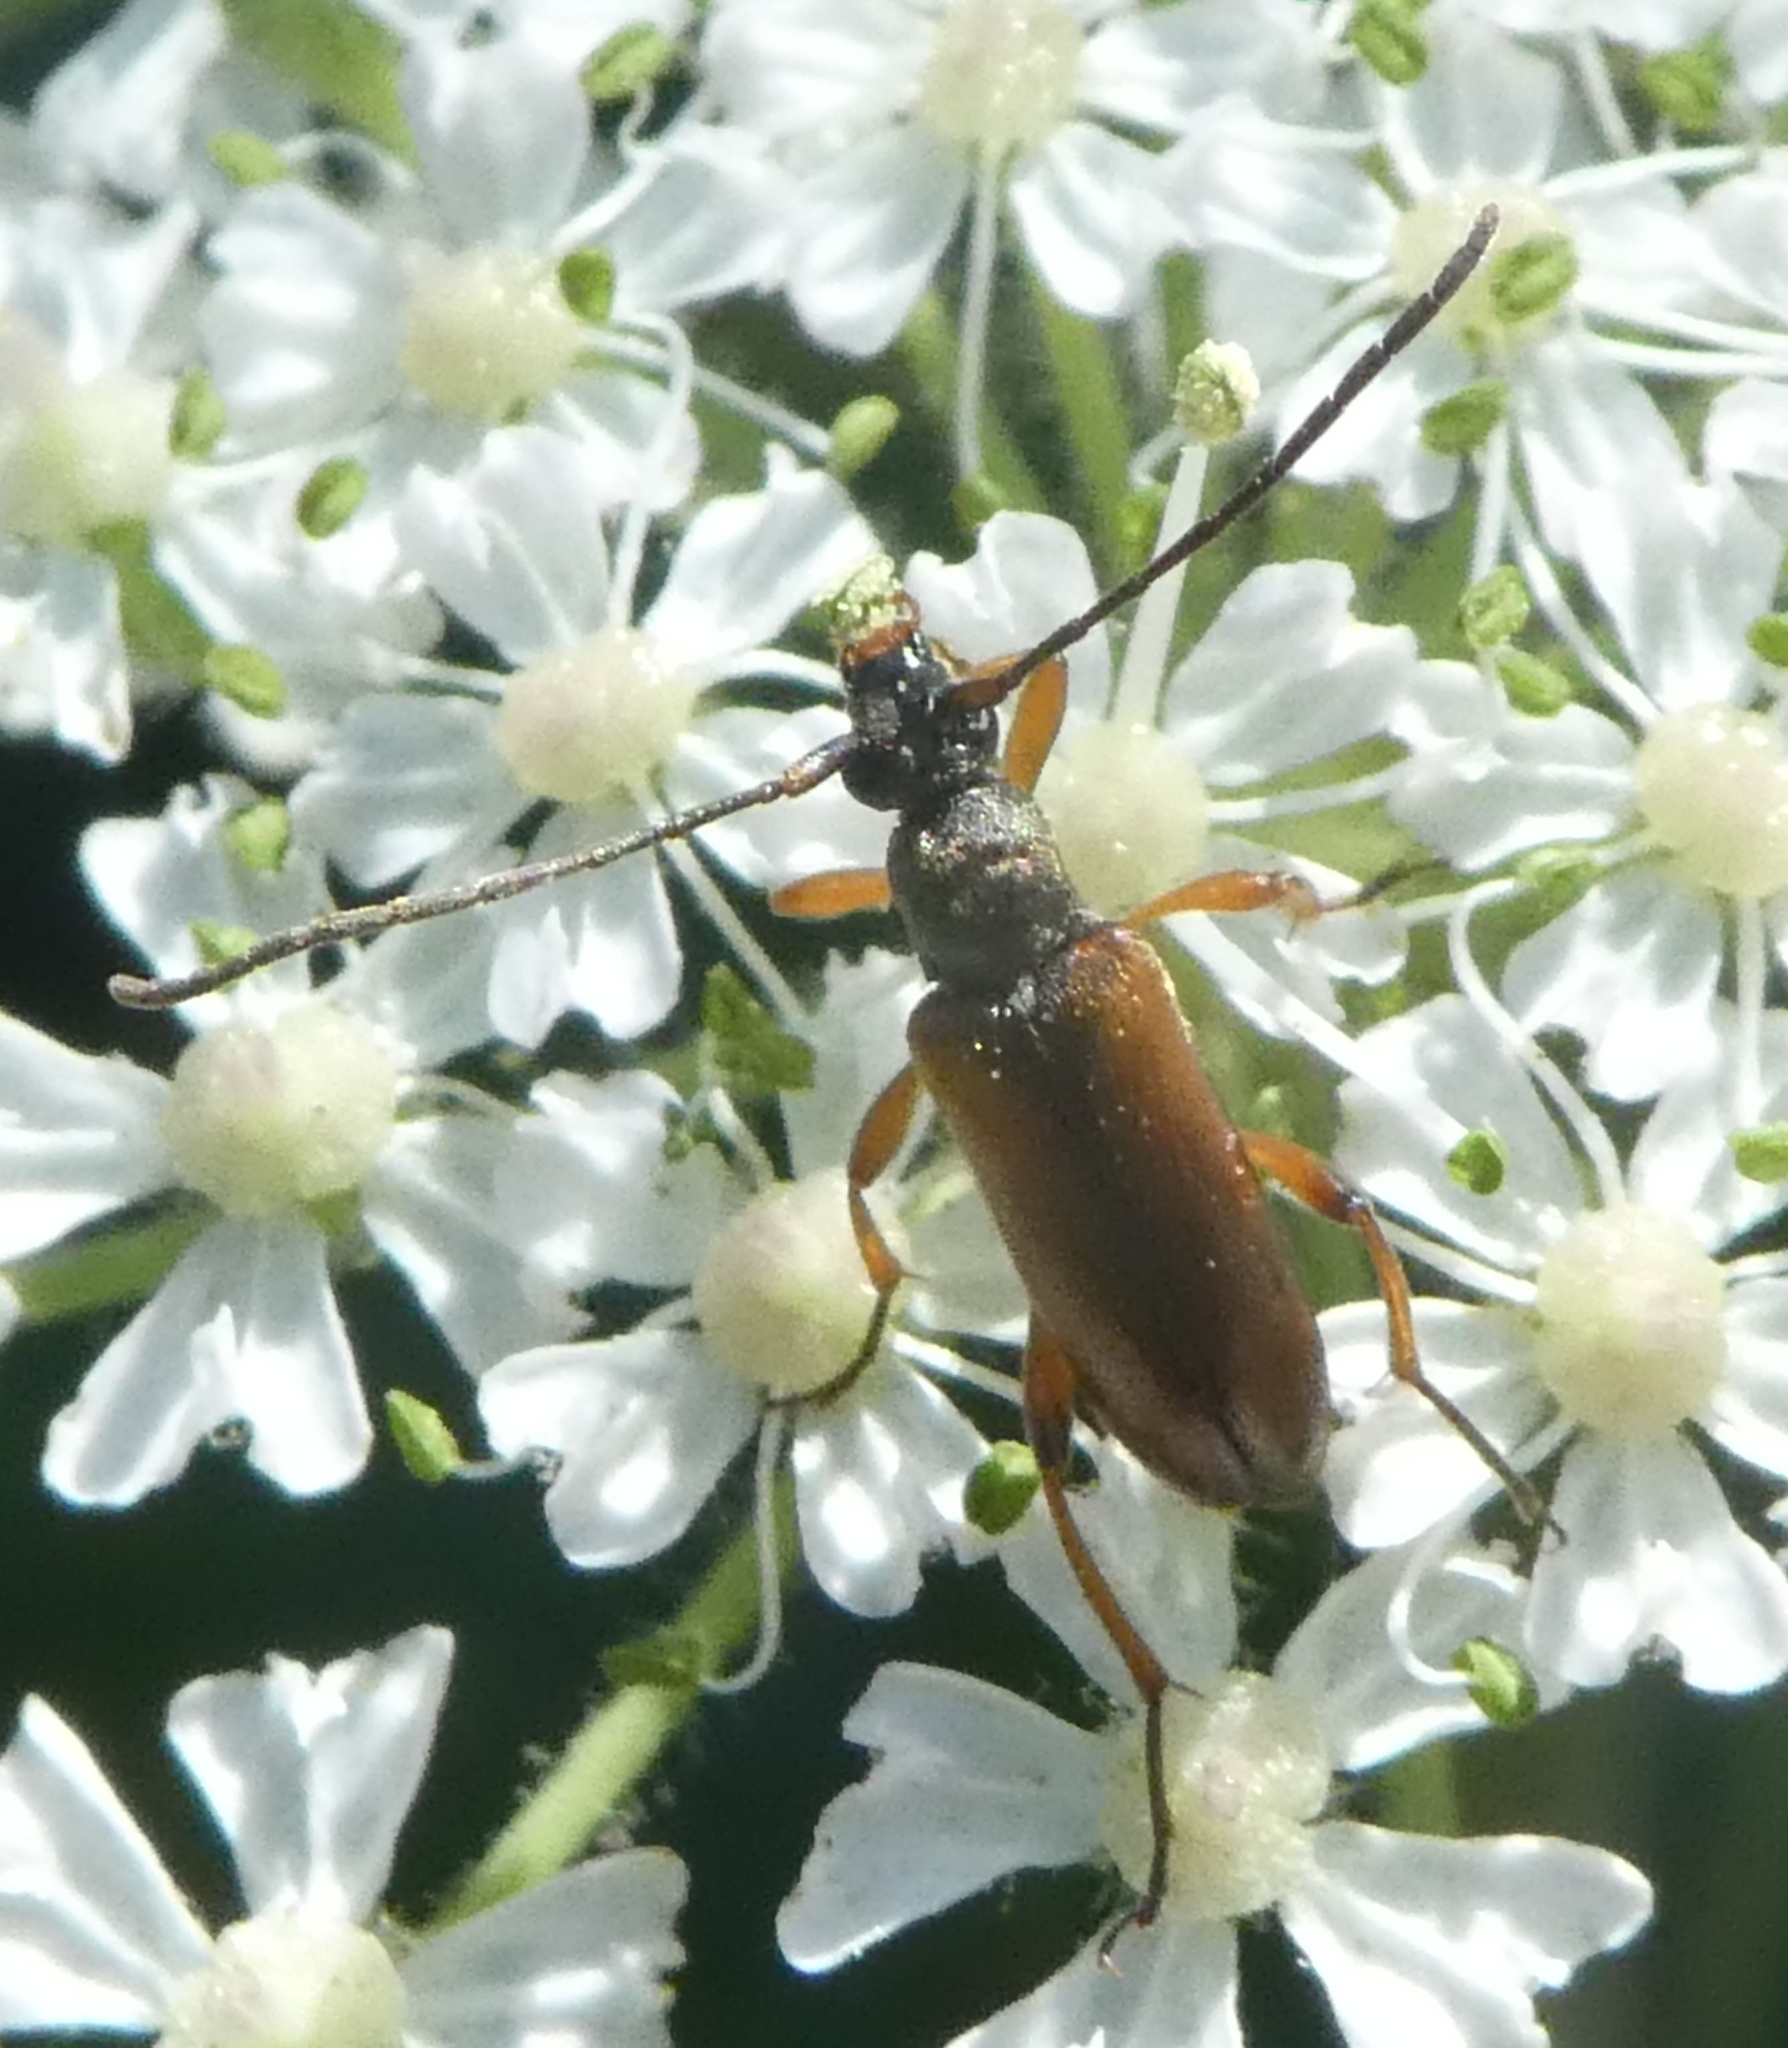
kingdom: Animalia
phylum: Arthropoda
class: Insecta
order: Coleoptera
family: Cerambycidae
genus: Alosterna
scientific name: Alosterna tabacicolor
